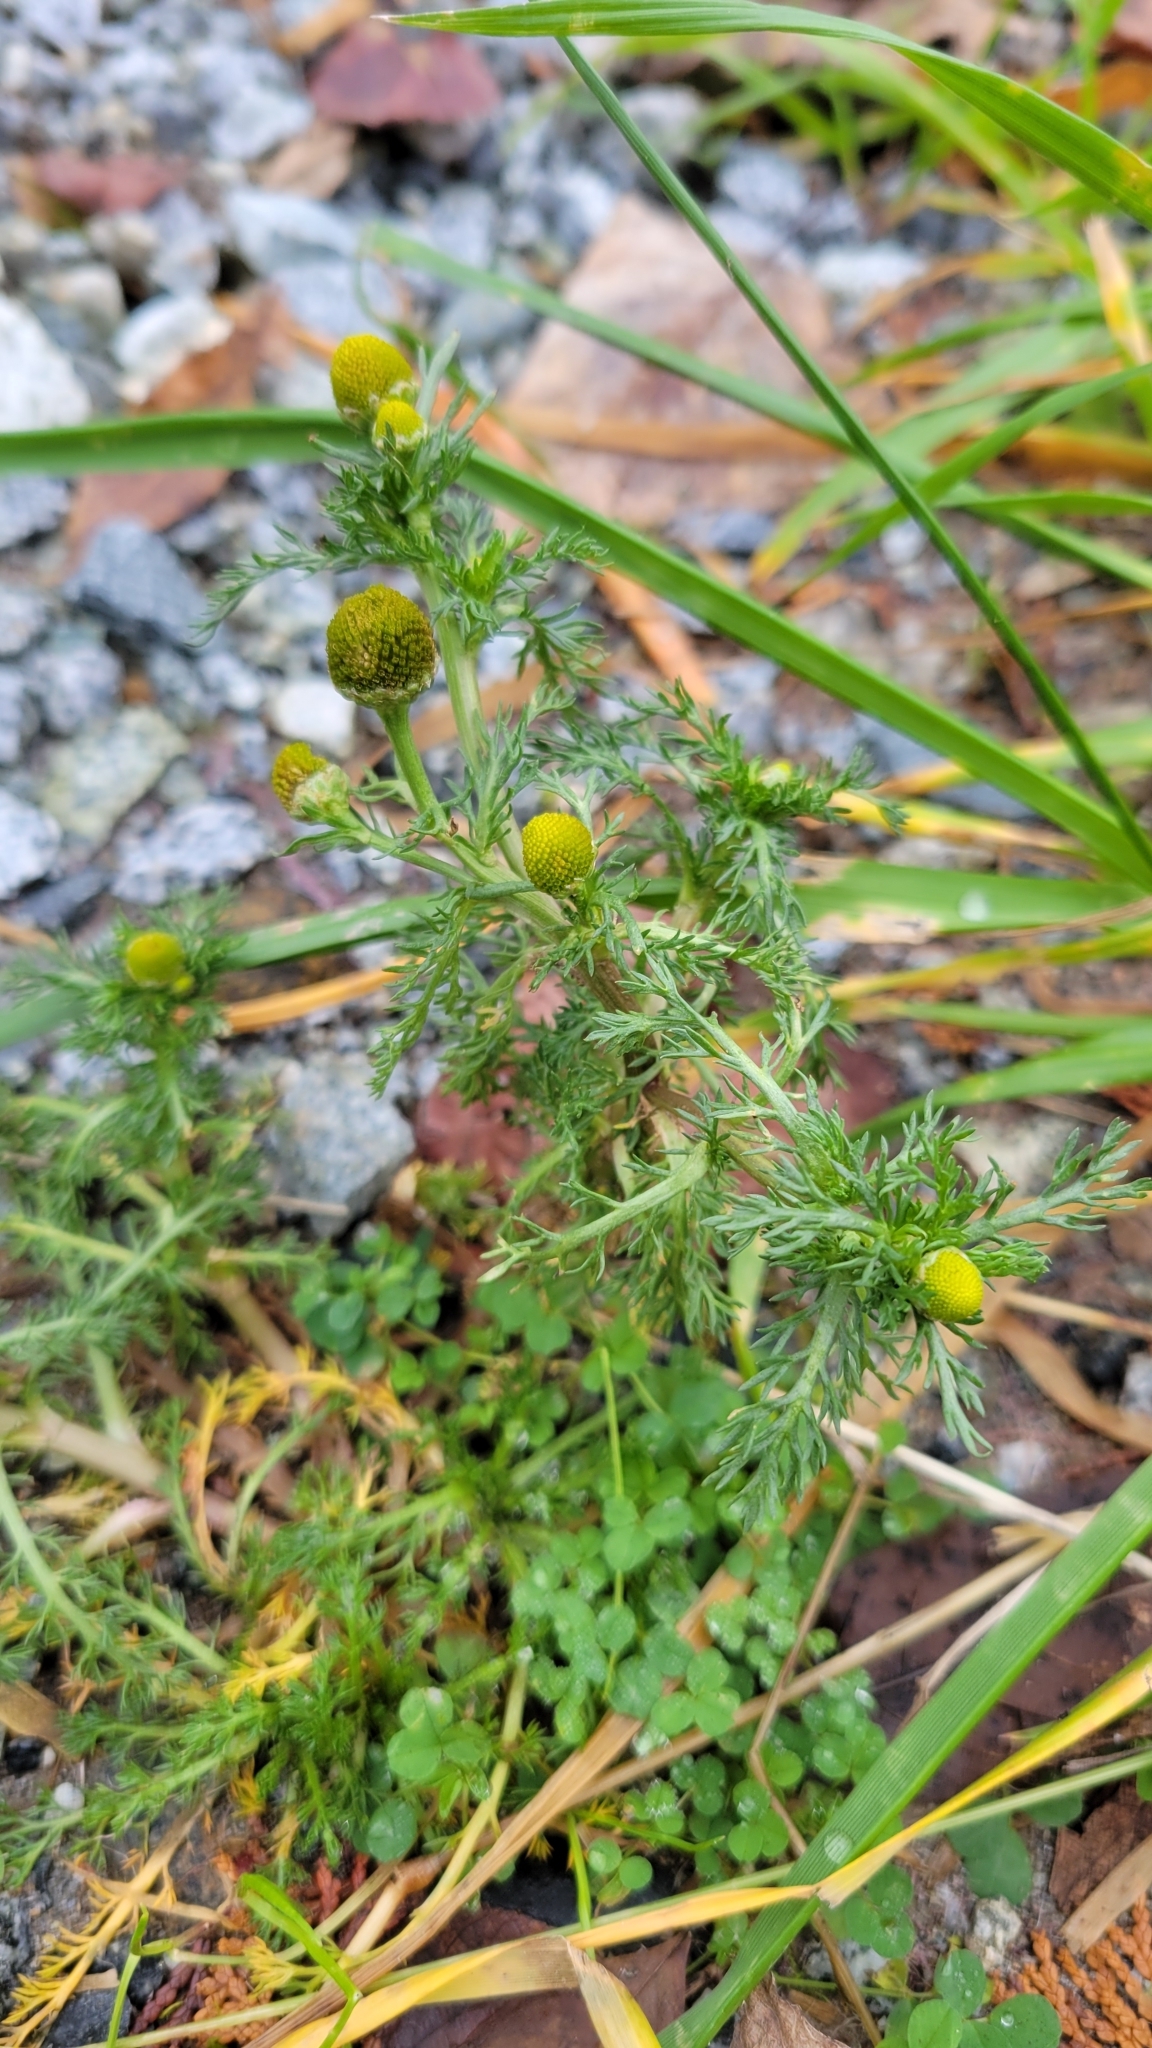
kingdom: Plantae
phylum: Tracheophyta
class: Magnoliopsida
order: Asterales
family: Asteraceae
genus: Matricaria
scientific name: Matricaria discoidea
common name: Disc mayweed
